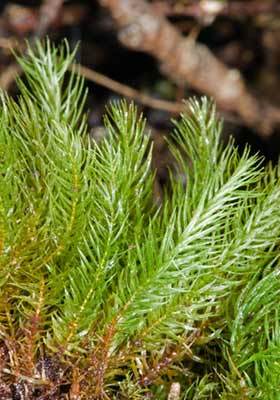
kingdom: Plantae
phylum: Bryophyta
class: Bryopsida
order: Rhizogoniales
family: Calomniaceae
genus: Pyrrhobryum
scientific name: Pyrrhobryum paramattense
